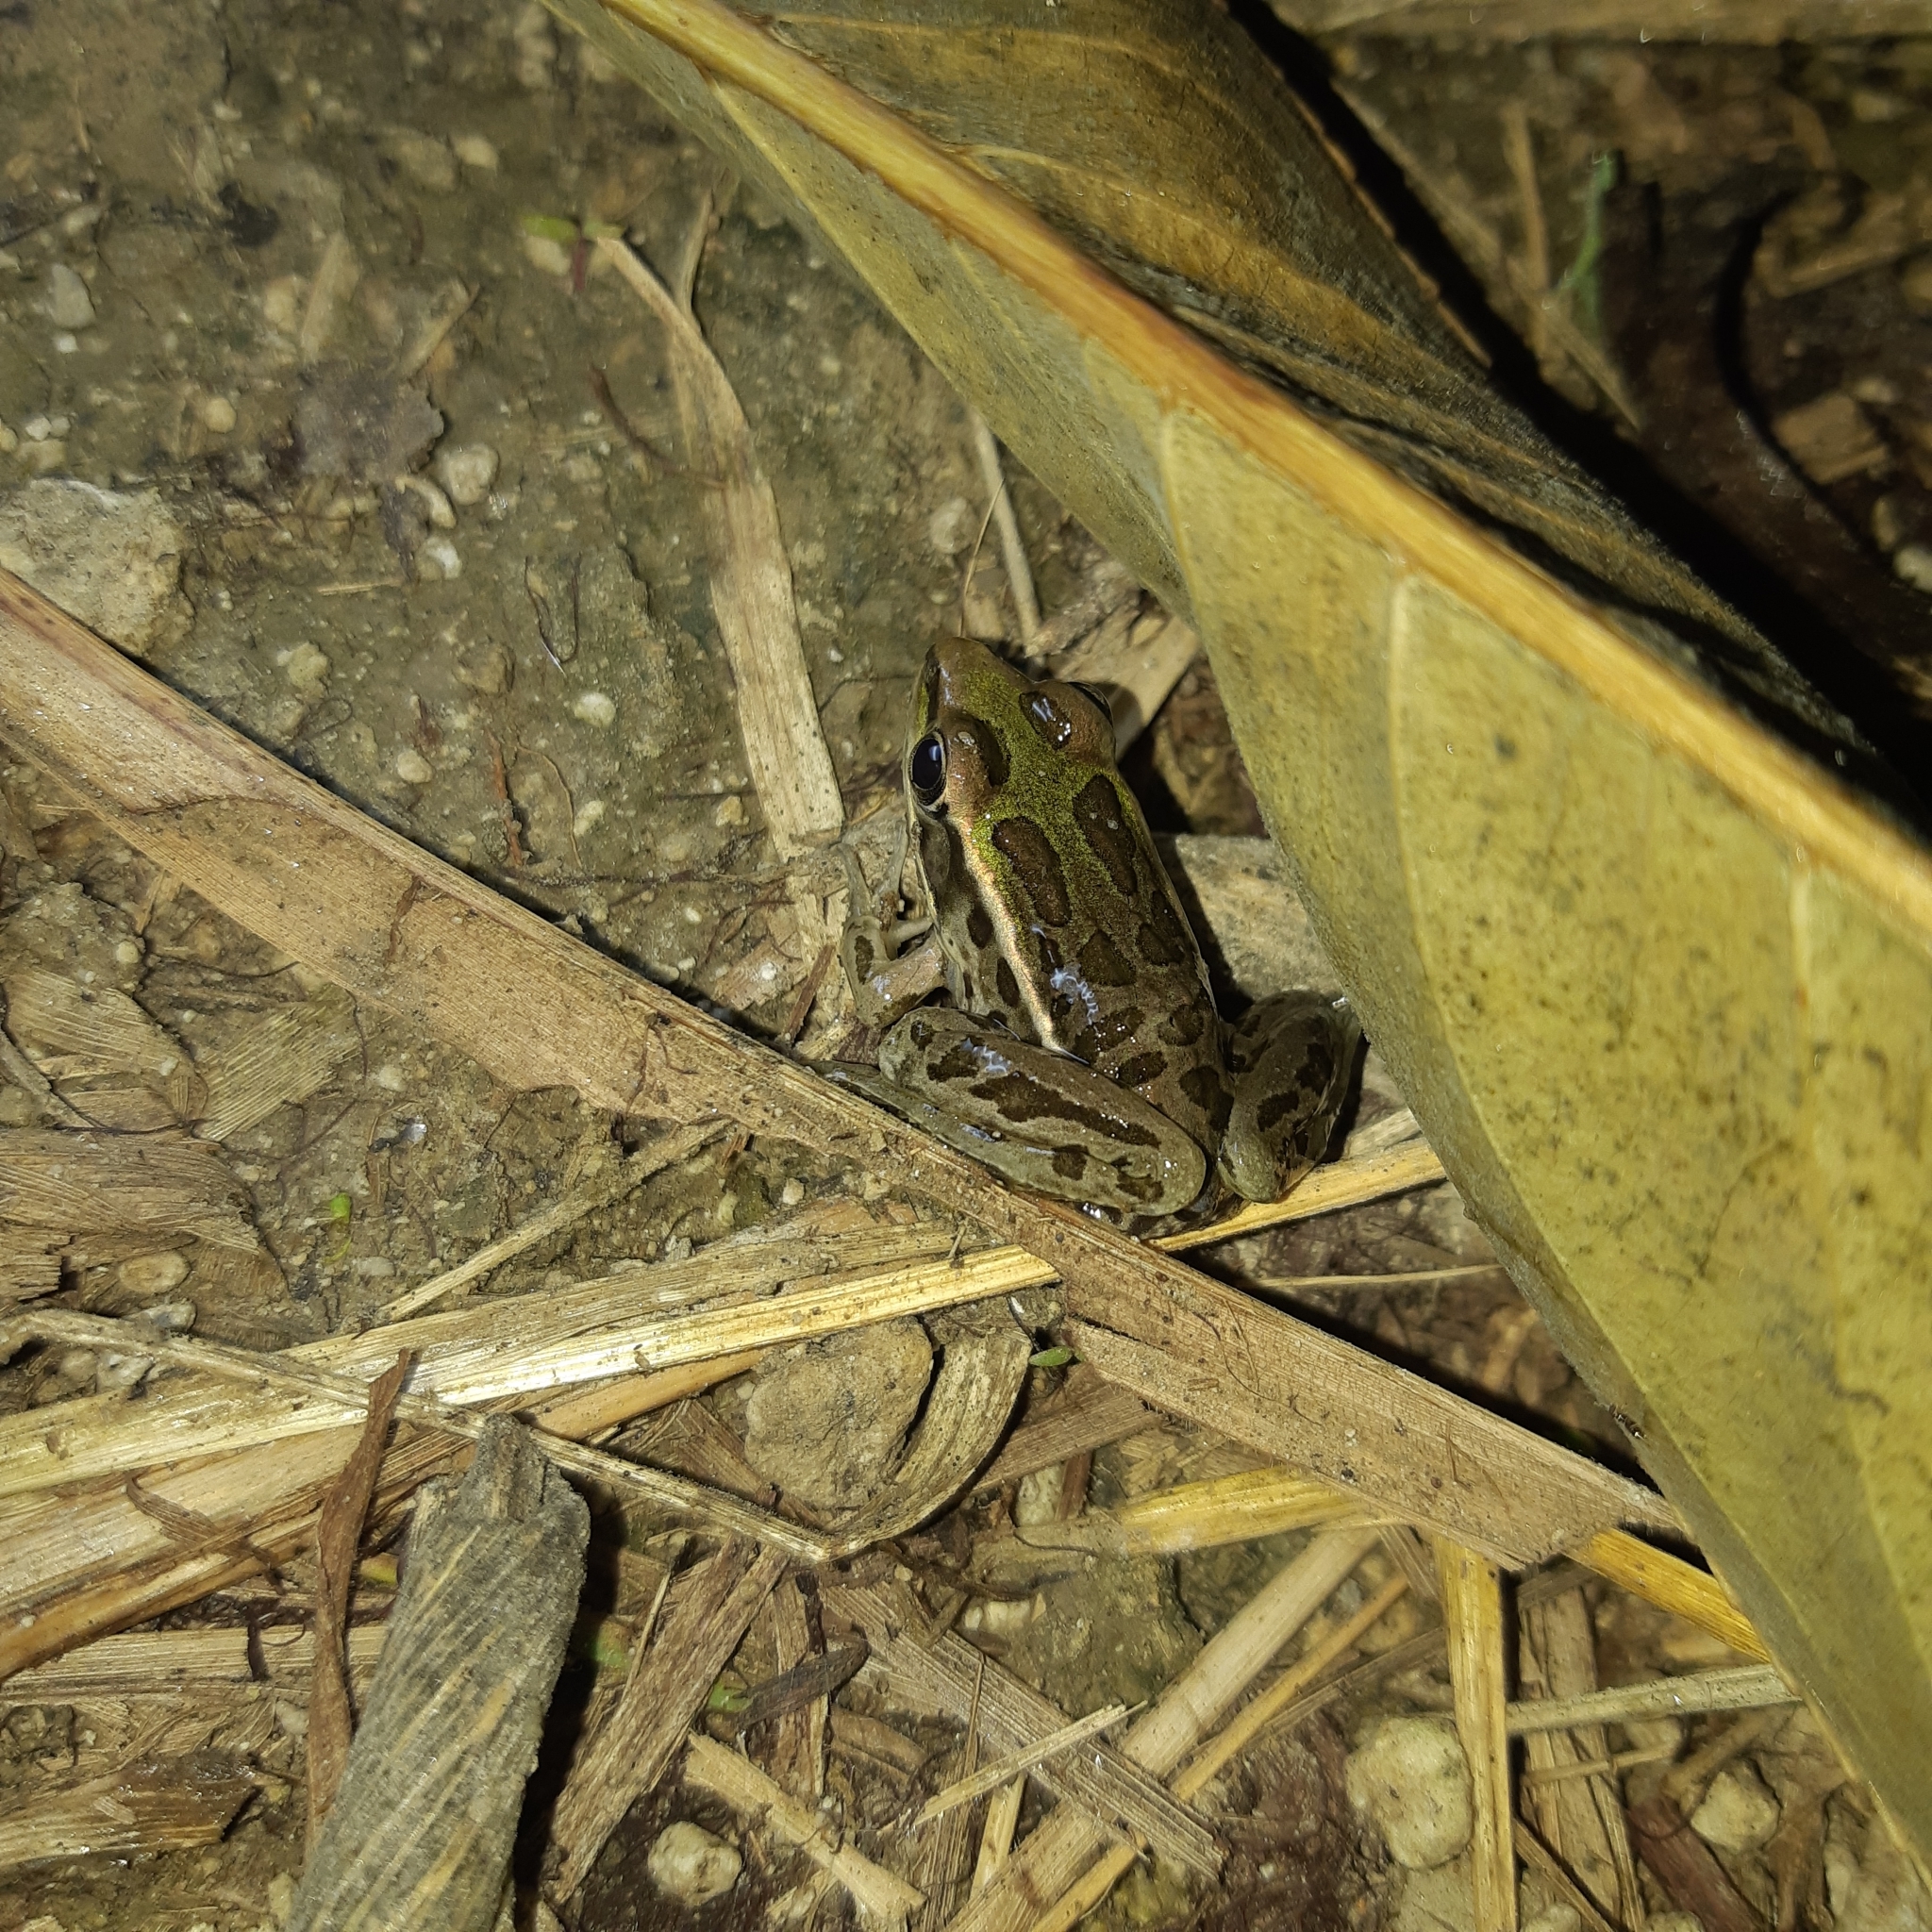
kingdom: Animalia
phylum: Chordata
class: Amphibia
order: Anura
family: Ranidae
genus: Lithobates
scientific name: Lithobates forreri
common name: Forrer's grass frog
